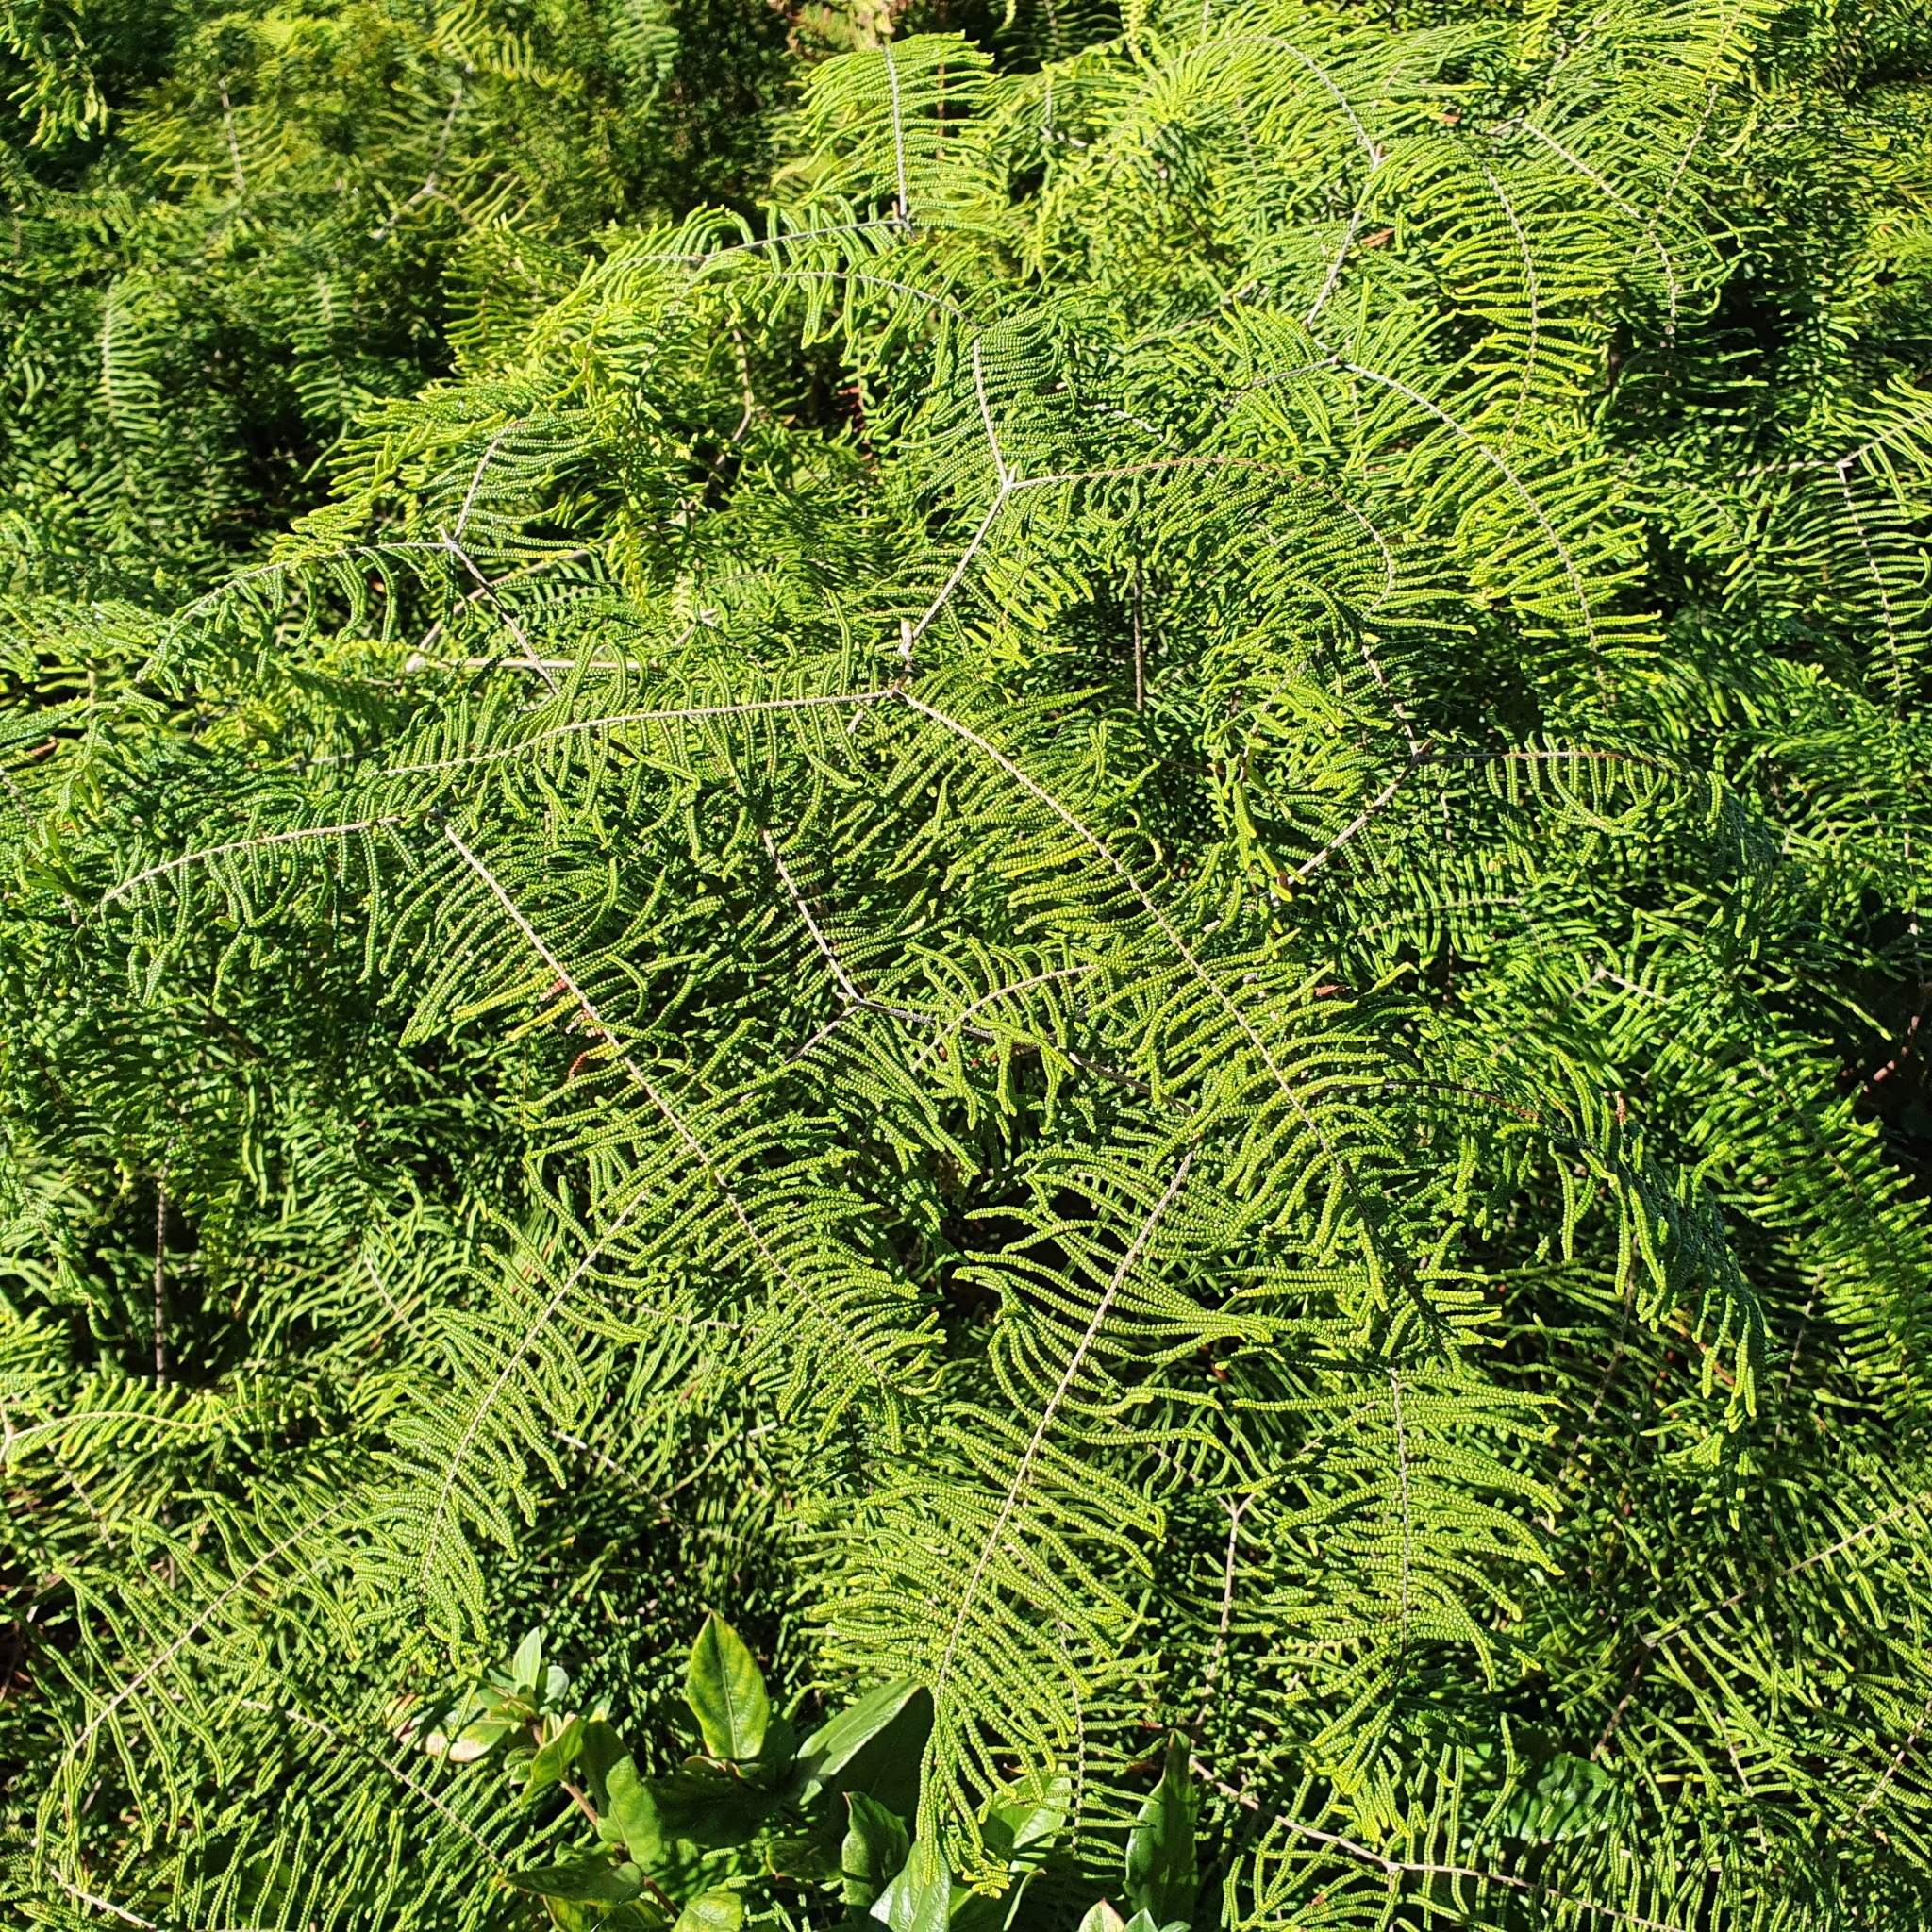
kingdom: Plantae
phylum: Tracheophyta
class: Polypodiopsida
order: Gleicheniales
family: Gleicheniaceae
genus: Gleichenia
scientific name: Gleichenia dicarpa
